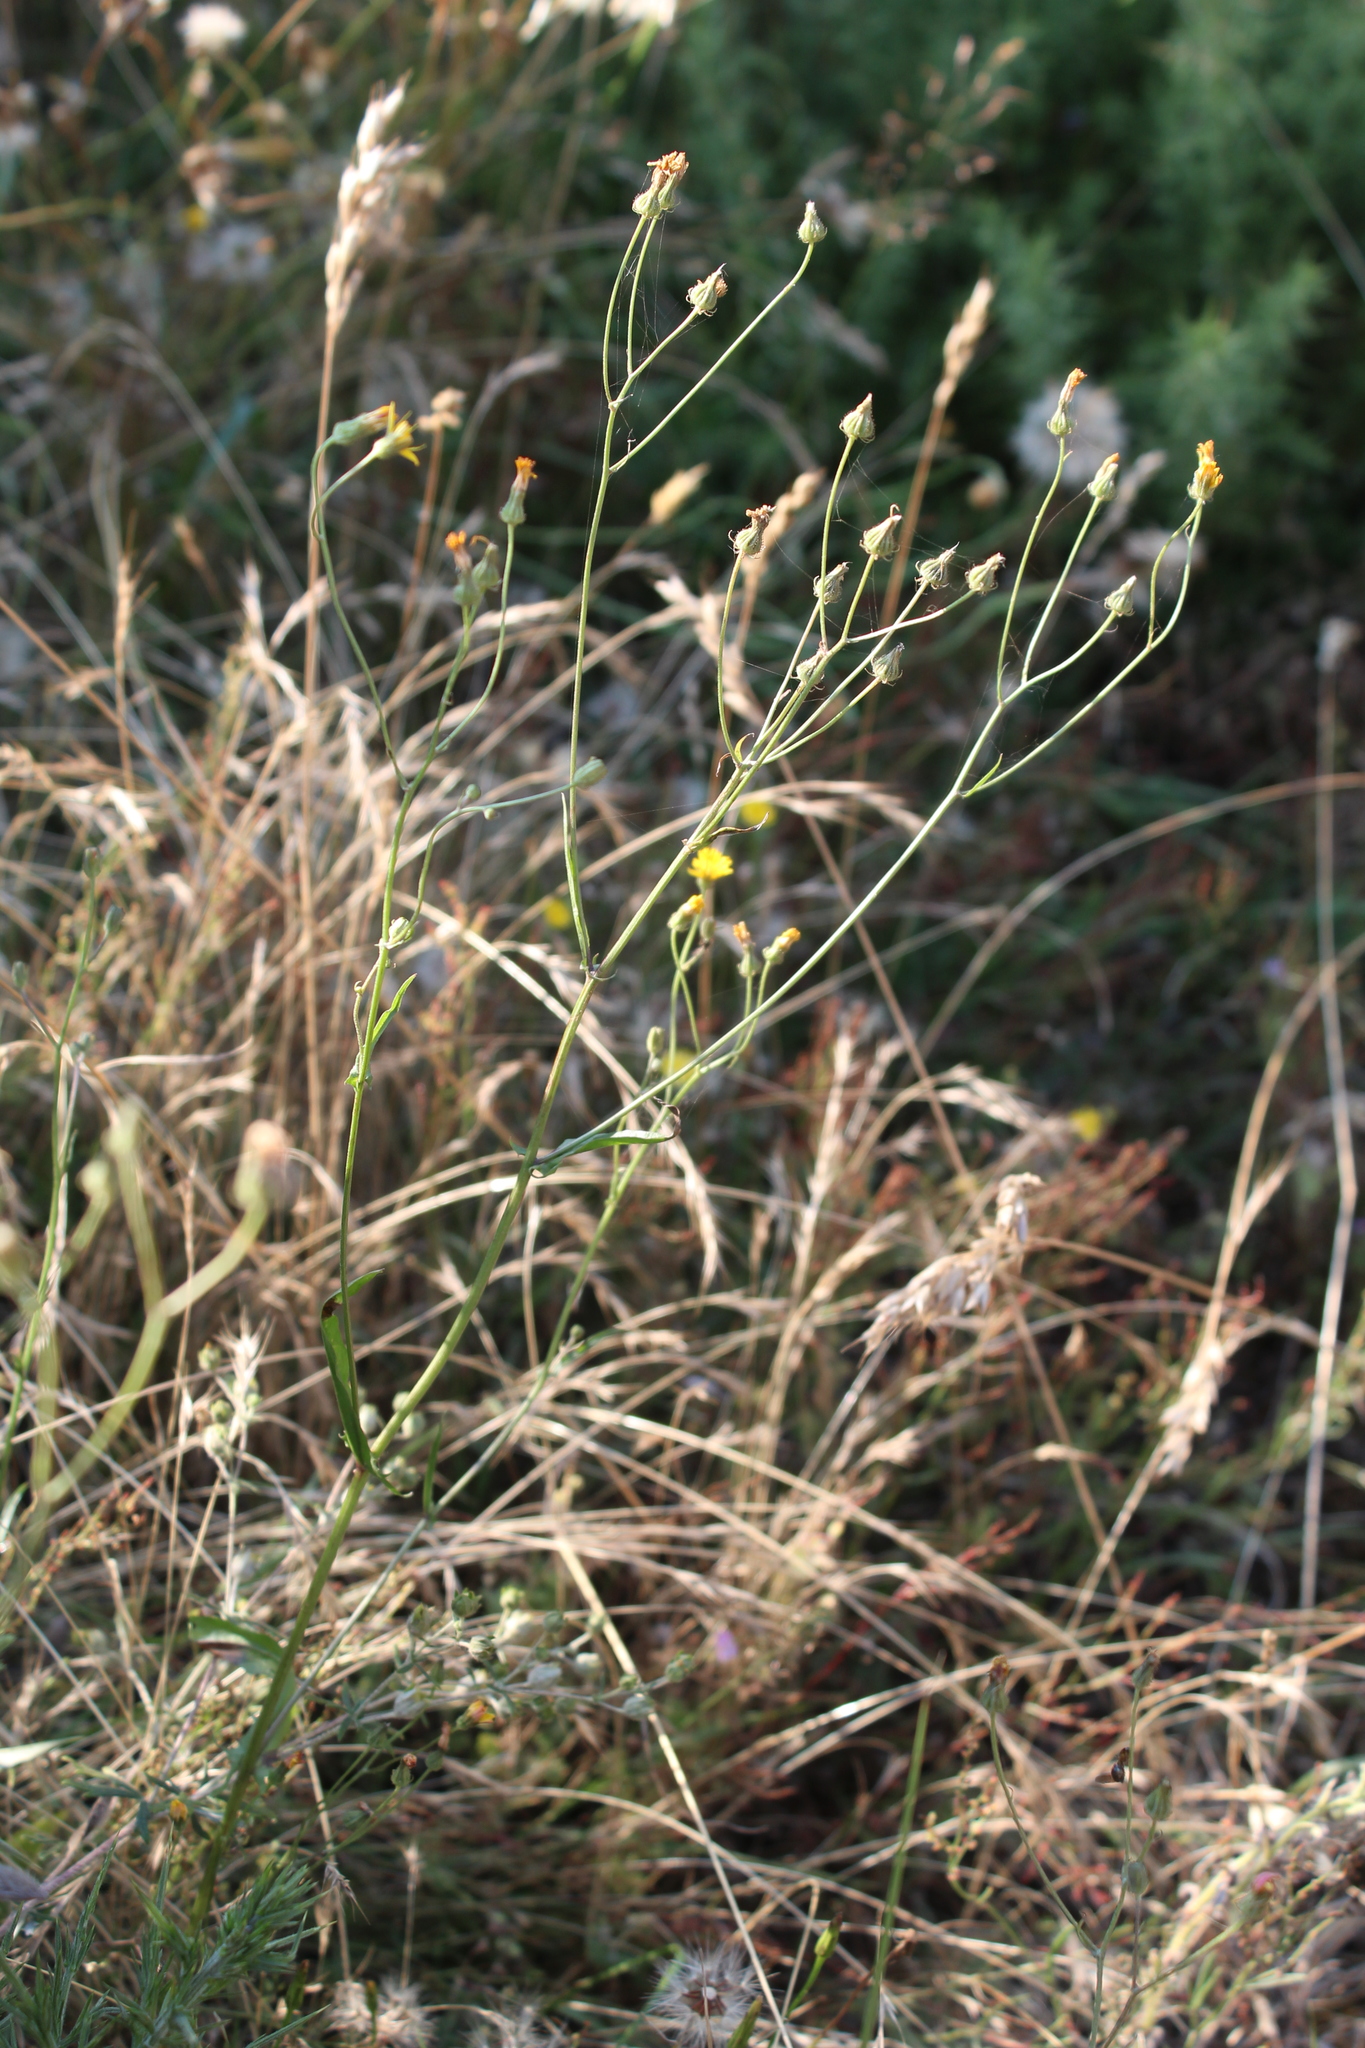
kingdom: Plantae
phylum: Tracheophyta
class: Magnoliopsida
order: Asterales
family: Asteraceae
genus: Crepis
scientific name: Crepis capillaris
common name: Smooth hawksbeard
